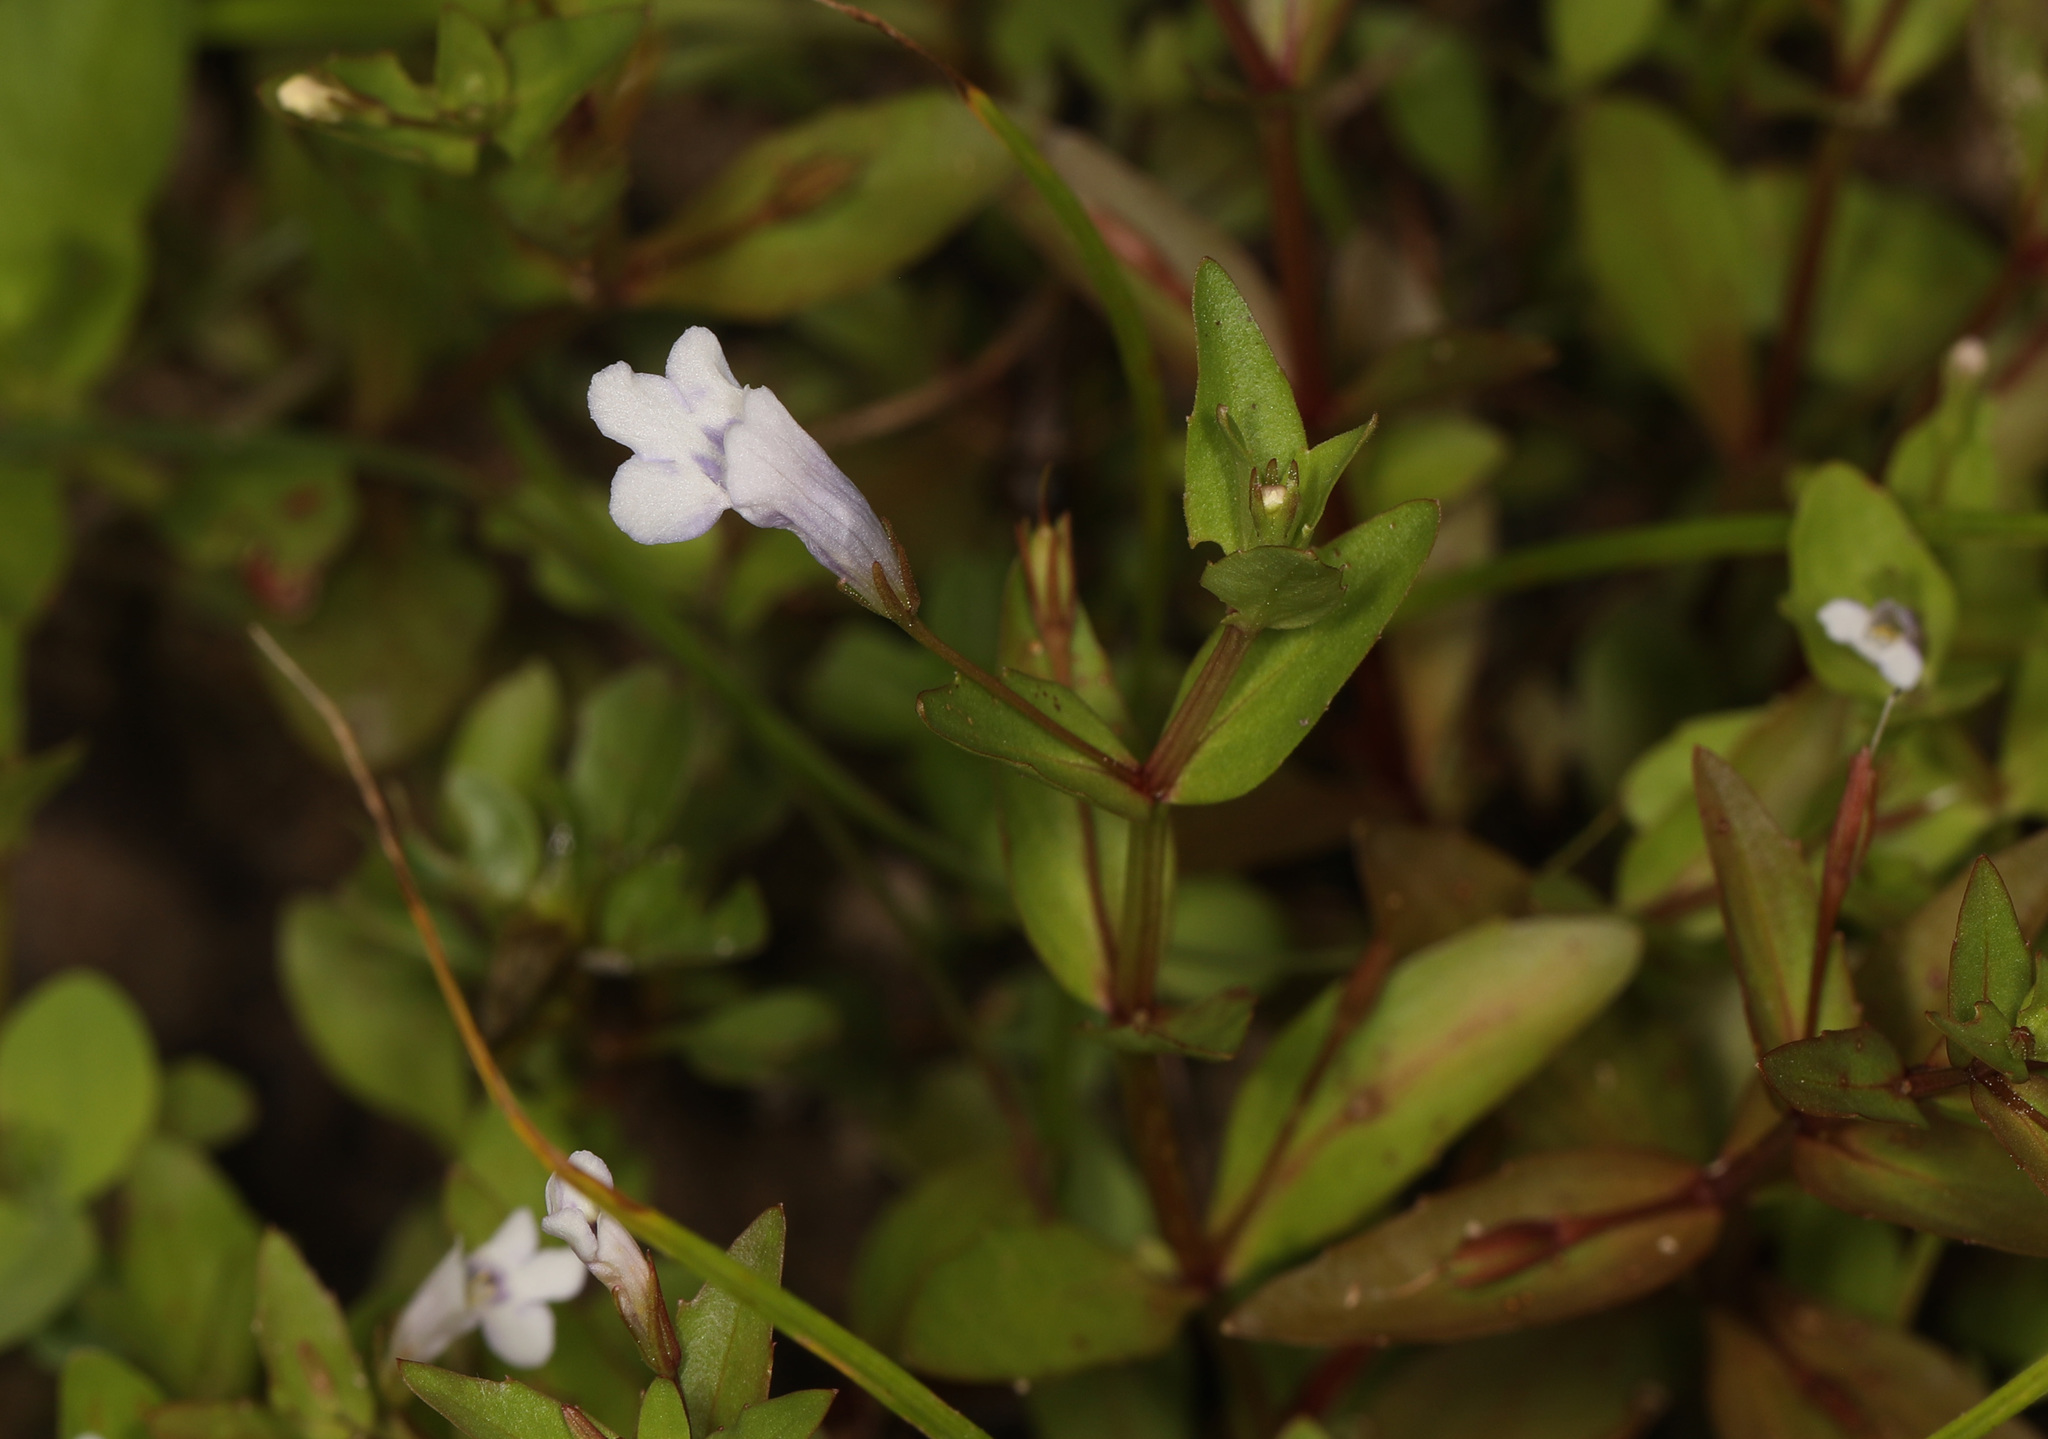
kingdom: Plantae
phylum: Tracheophyta
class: Magnoliopsida
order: Lamiales
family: Linderniaceae
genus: Lindernia
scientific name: Lindernia dubia
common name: Annual false pimpernel
